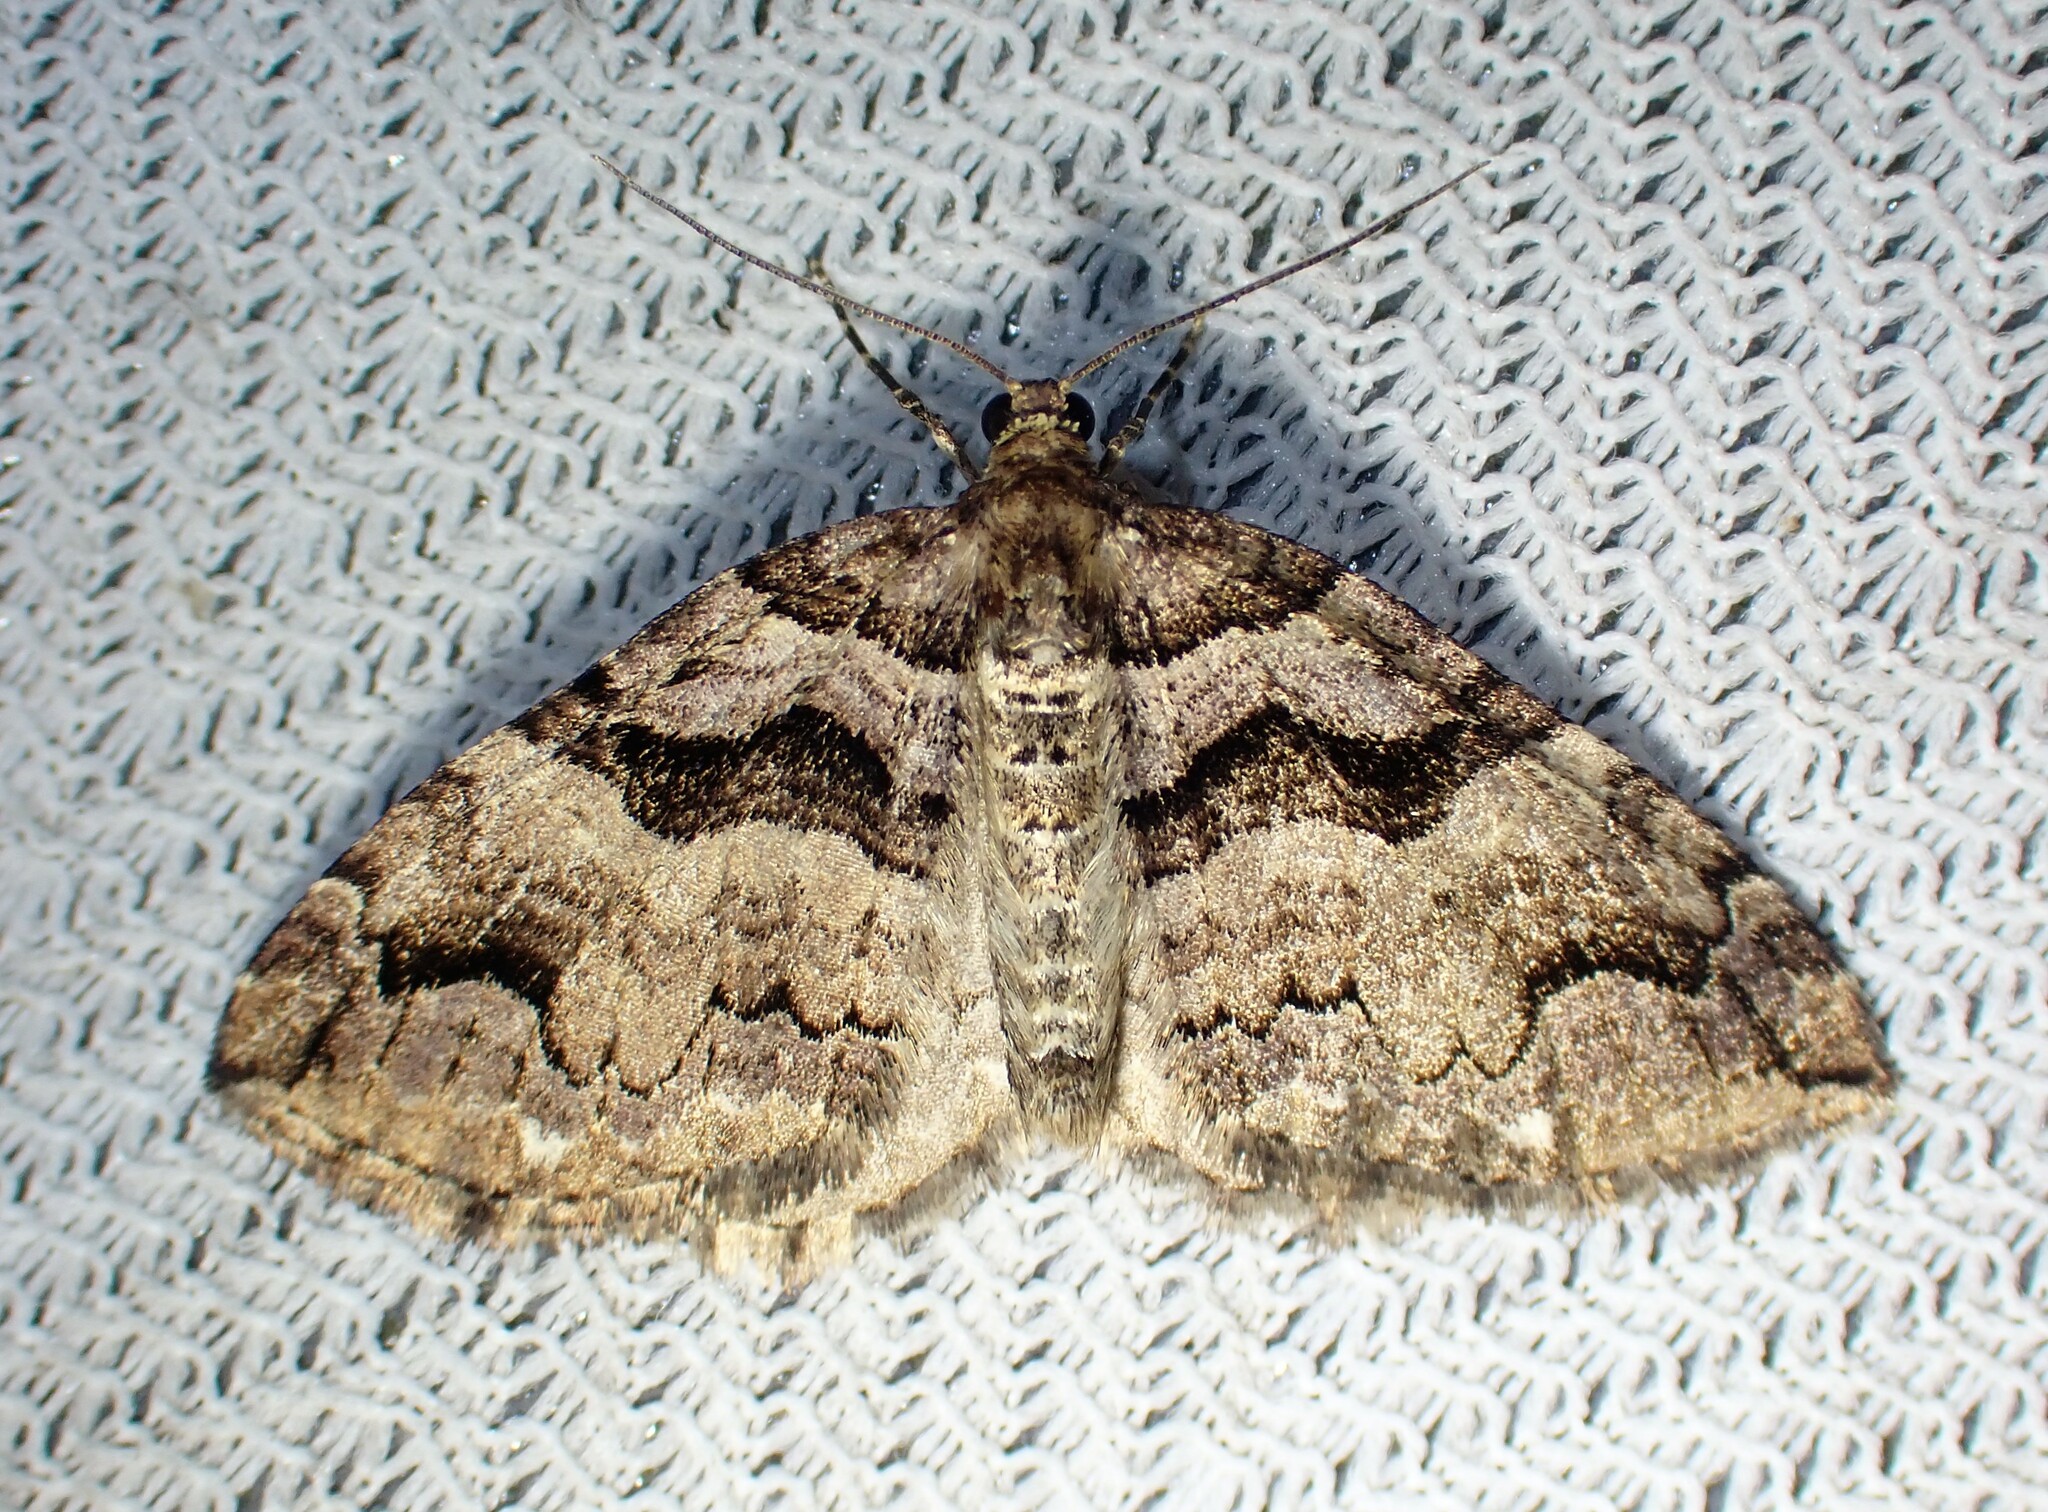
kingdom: Animalia
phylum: Arthropoda
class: Insecta
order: Lepidoptera
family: Geometridae
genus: Anticlea
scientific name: Anticlea vasiliata
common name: Variable carpet
